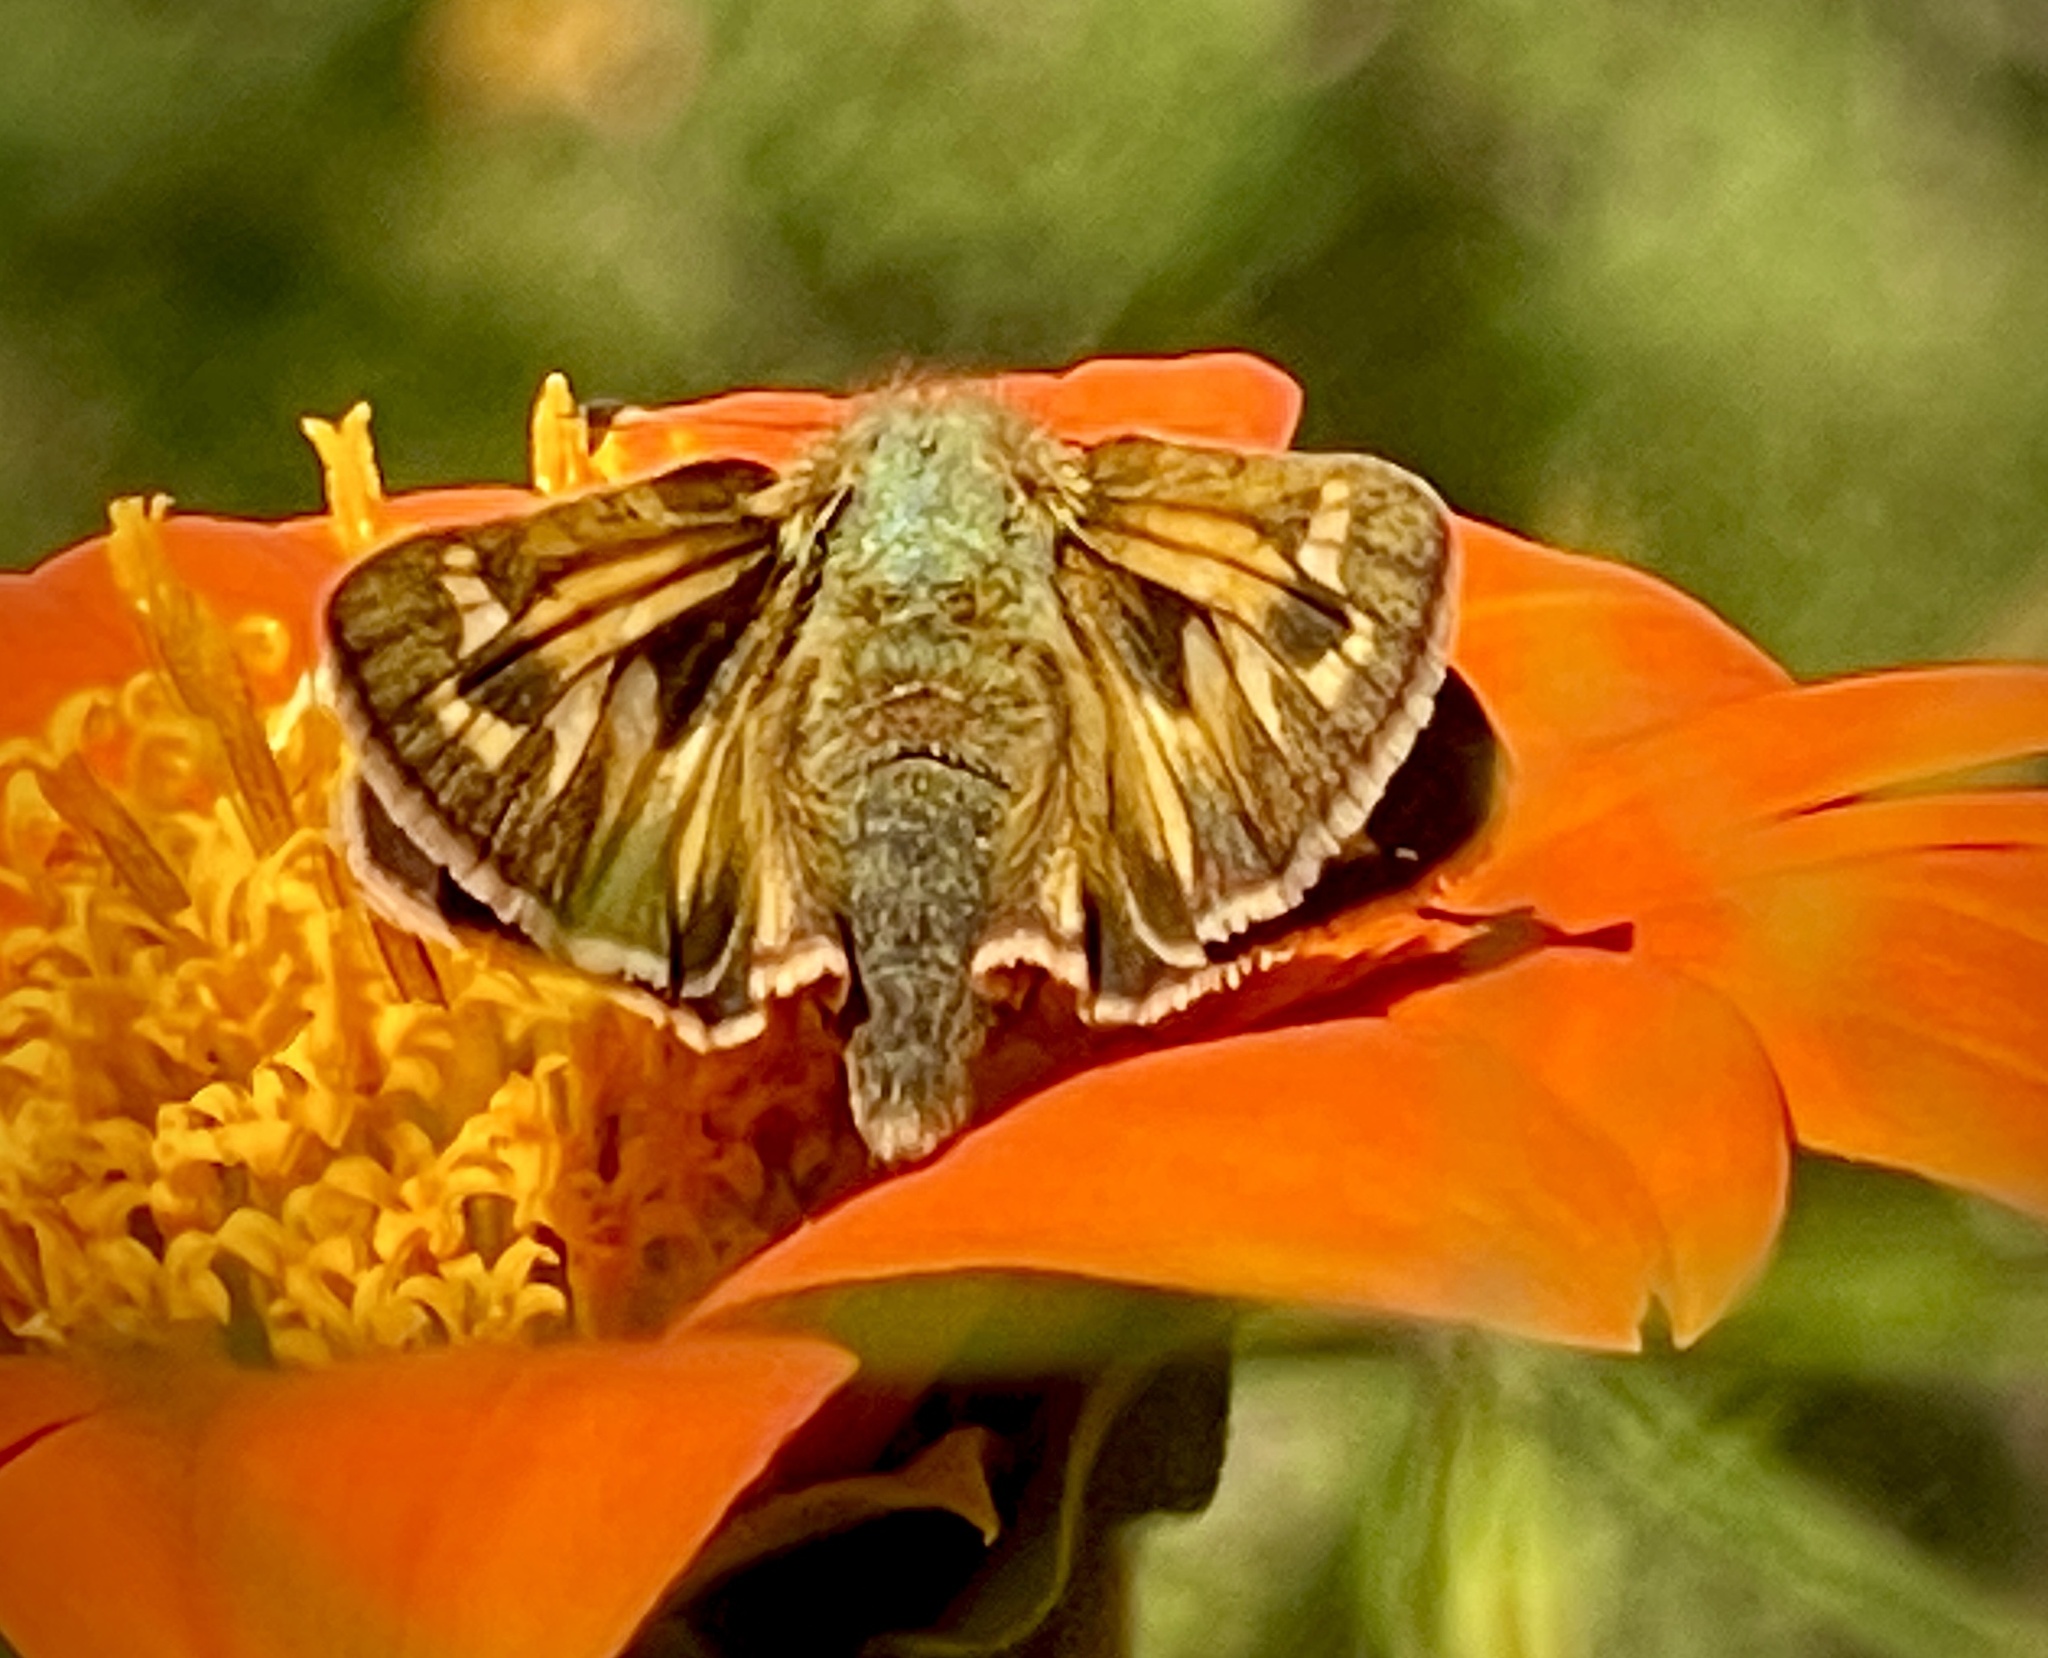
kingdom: Animalia
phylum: Arthropoda
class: Insecta
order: Lepidoptera
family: Hesperiidae
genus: Atalopedes
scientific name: Atalopedes
